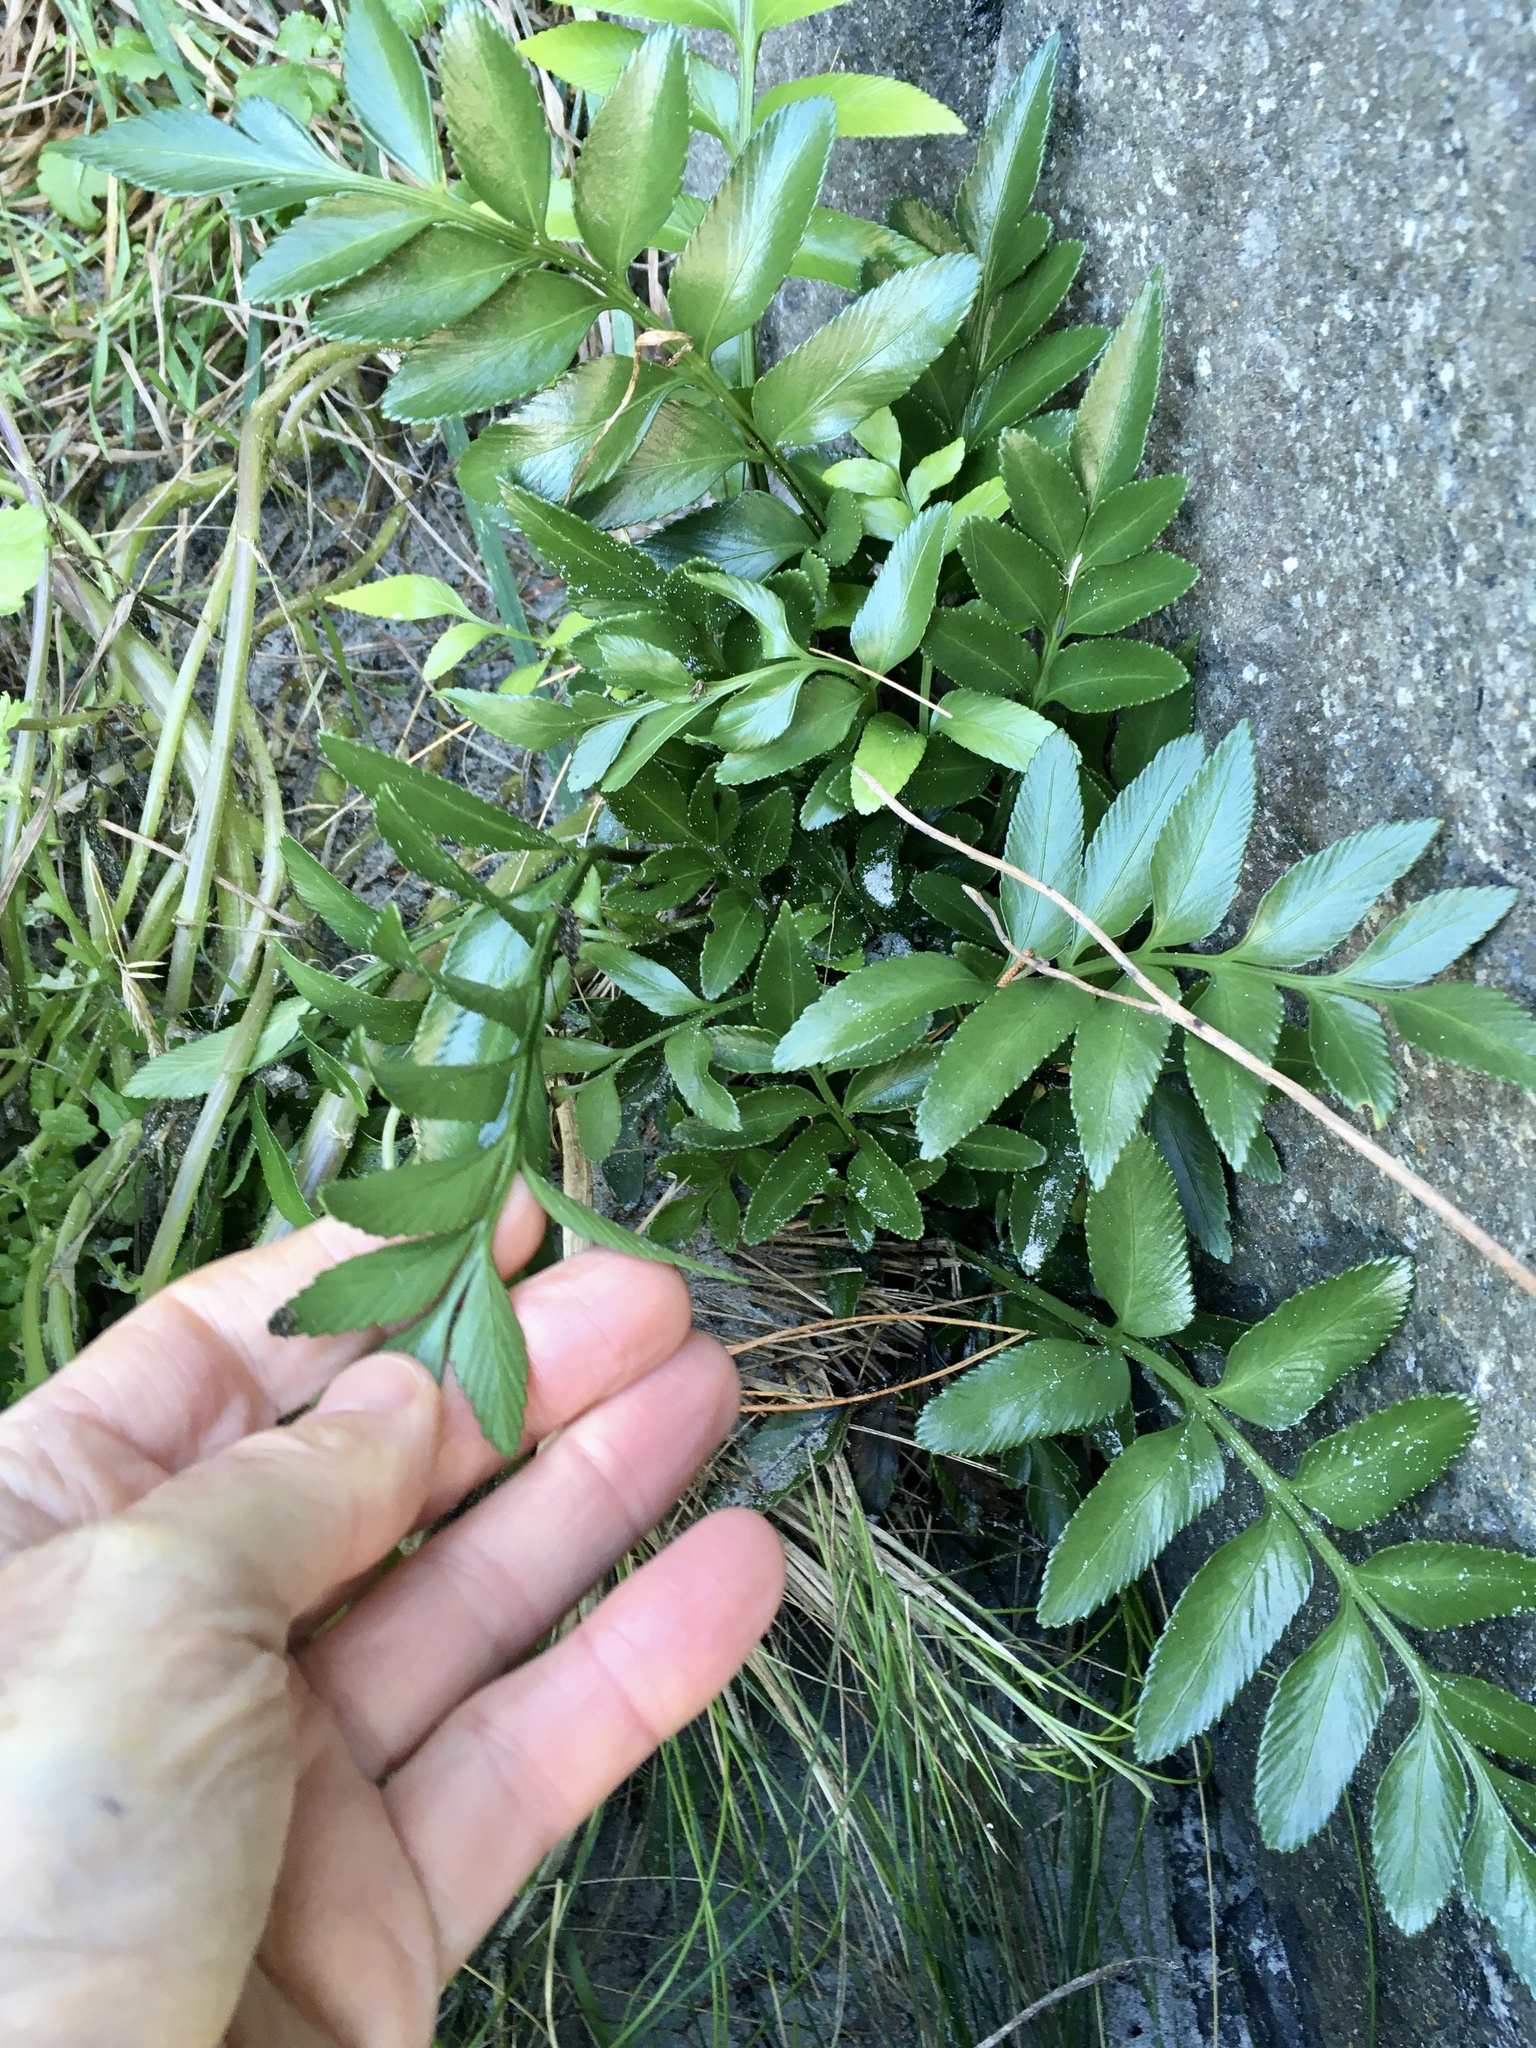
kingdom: Plantae
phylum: Tracheophyta
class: Polypodiopsida
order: Polypodiales
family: Aspleniaceae
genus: Asplenium
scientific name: Asplenium obtusatum
